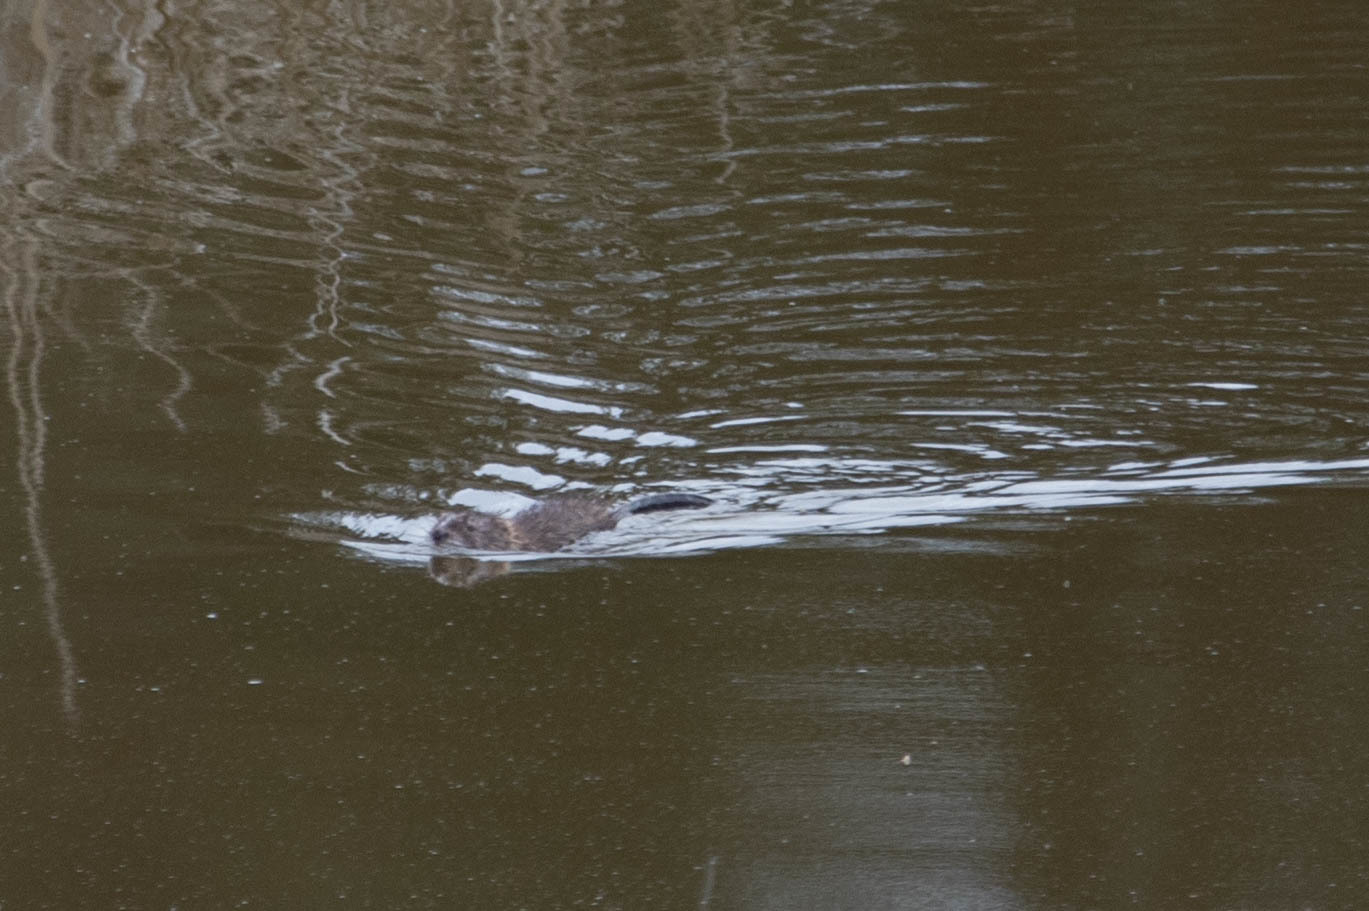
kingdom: Animalia
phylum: Chordata
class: Mammalia
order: Rodentia
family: Cricetidae
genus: Ondatra
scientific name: Ondatra zibethicus
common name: Muskrat
